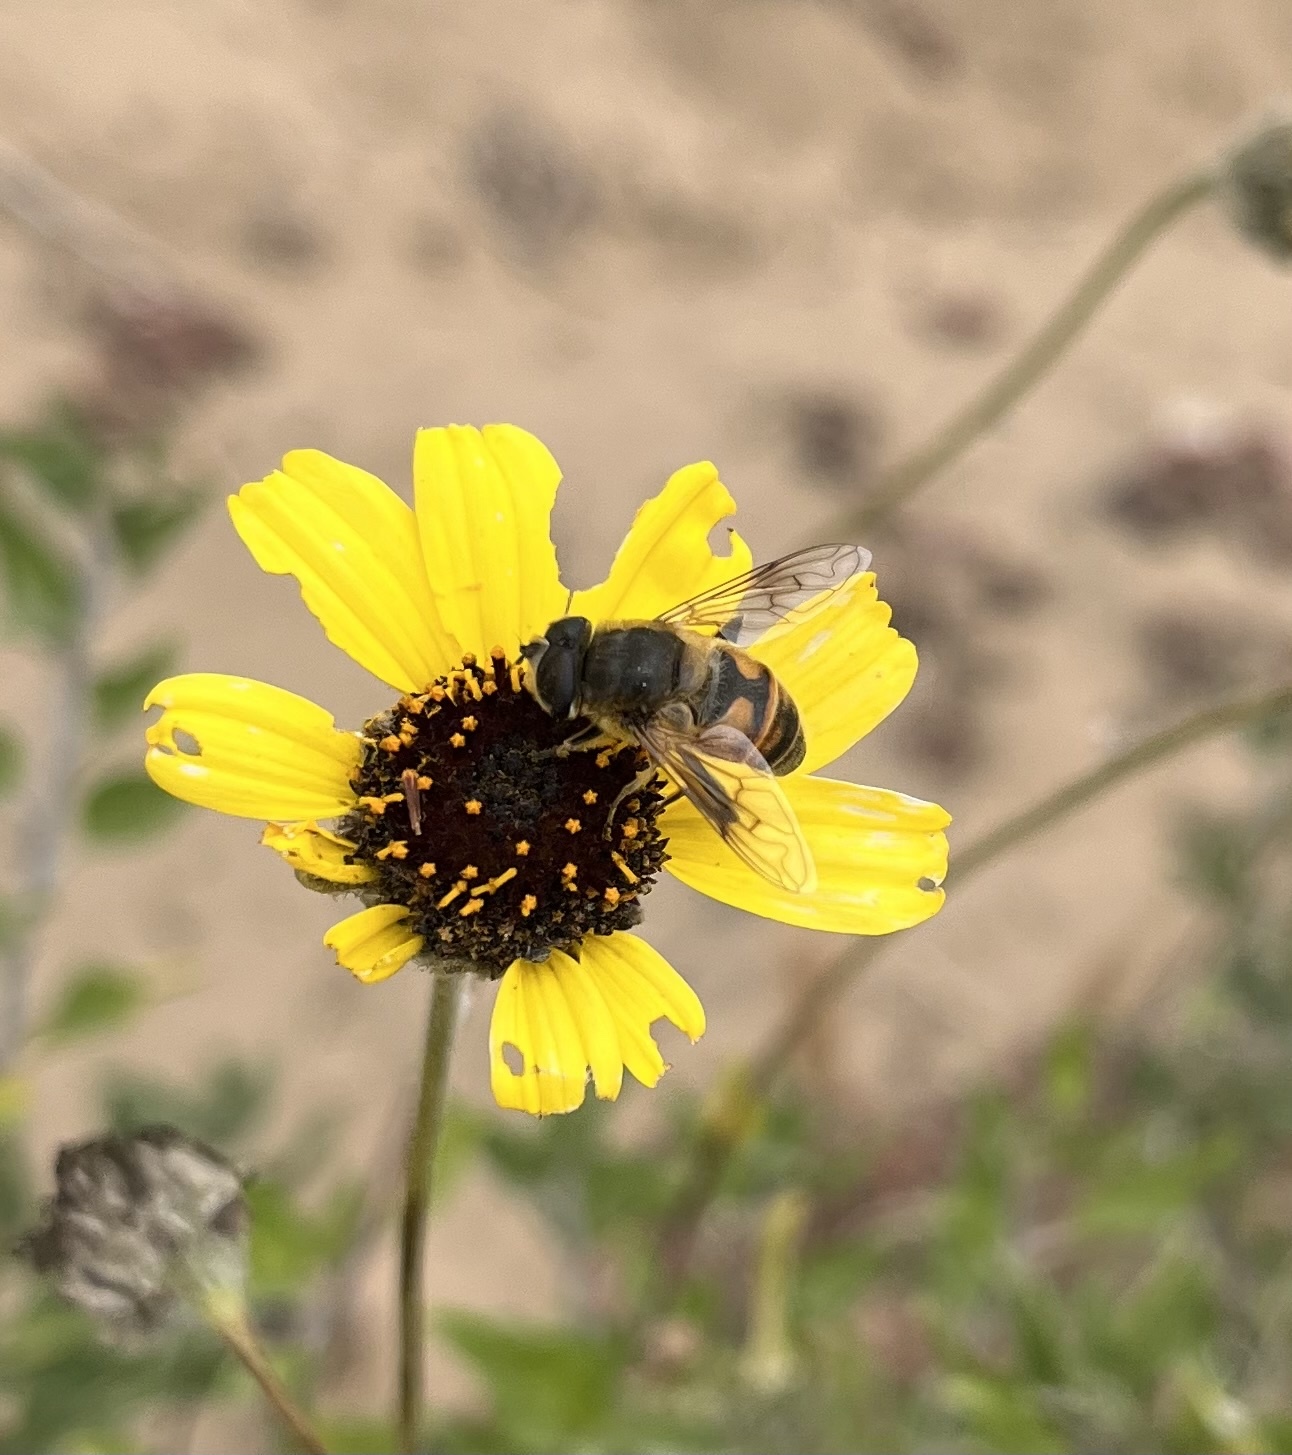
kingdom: Animalia
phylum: Arthropoda
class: Insecta
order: Diptera
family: Syrphidae
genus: Eristalis
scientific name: Eristalis tenax
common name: Drone fly
